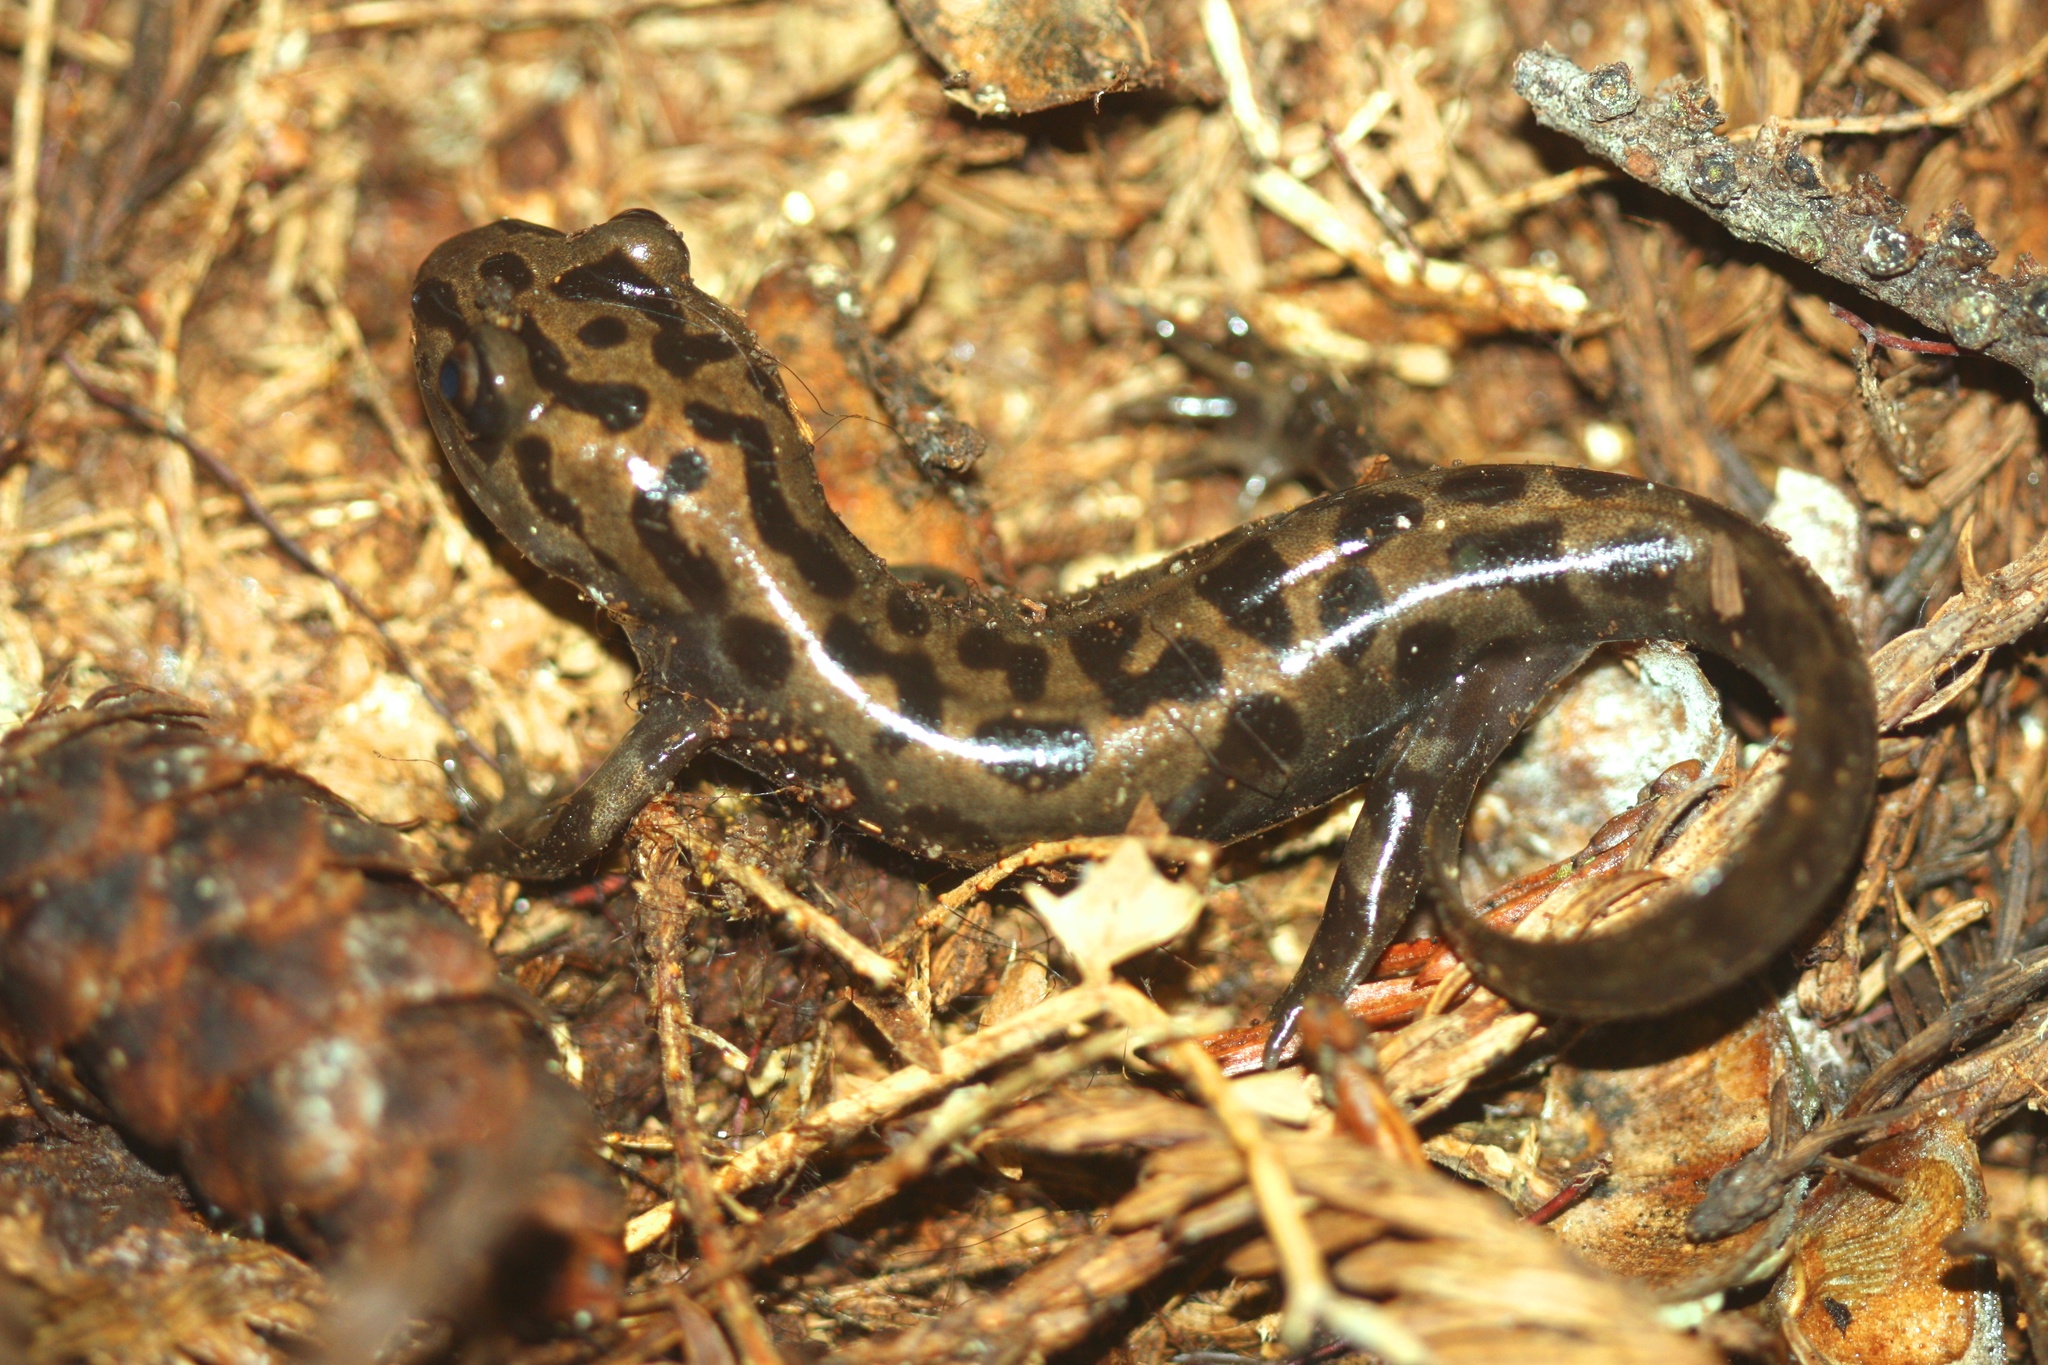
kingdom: Animalia
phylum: Chordata
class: Amphibia
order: Caudata
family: Ambystomatidae
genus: Dicamptodon
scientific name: Dicamptodon tenebrosus
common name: Coastal giant salamander
